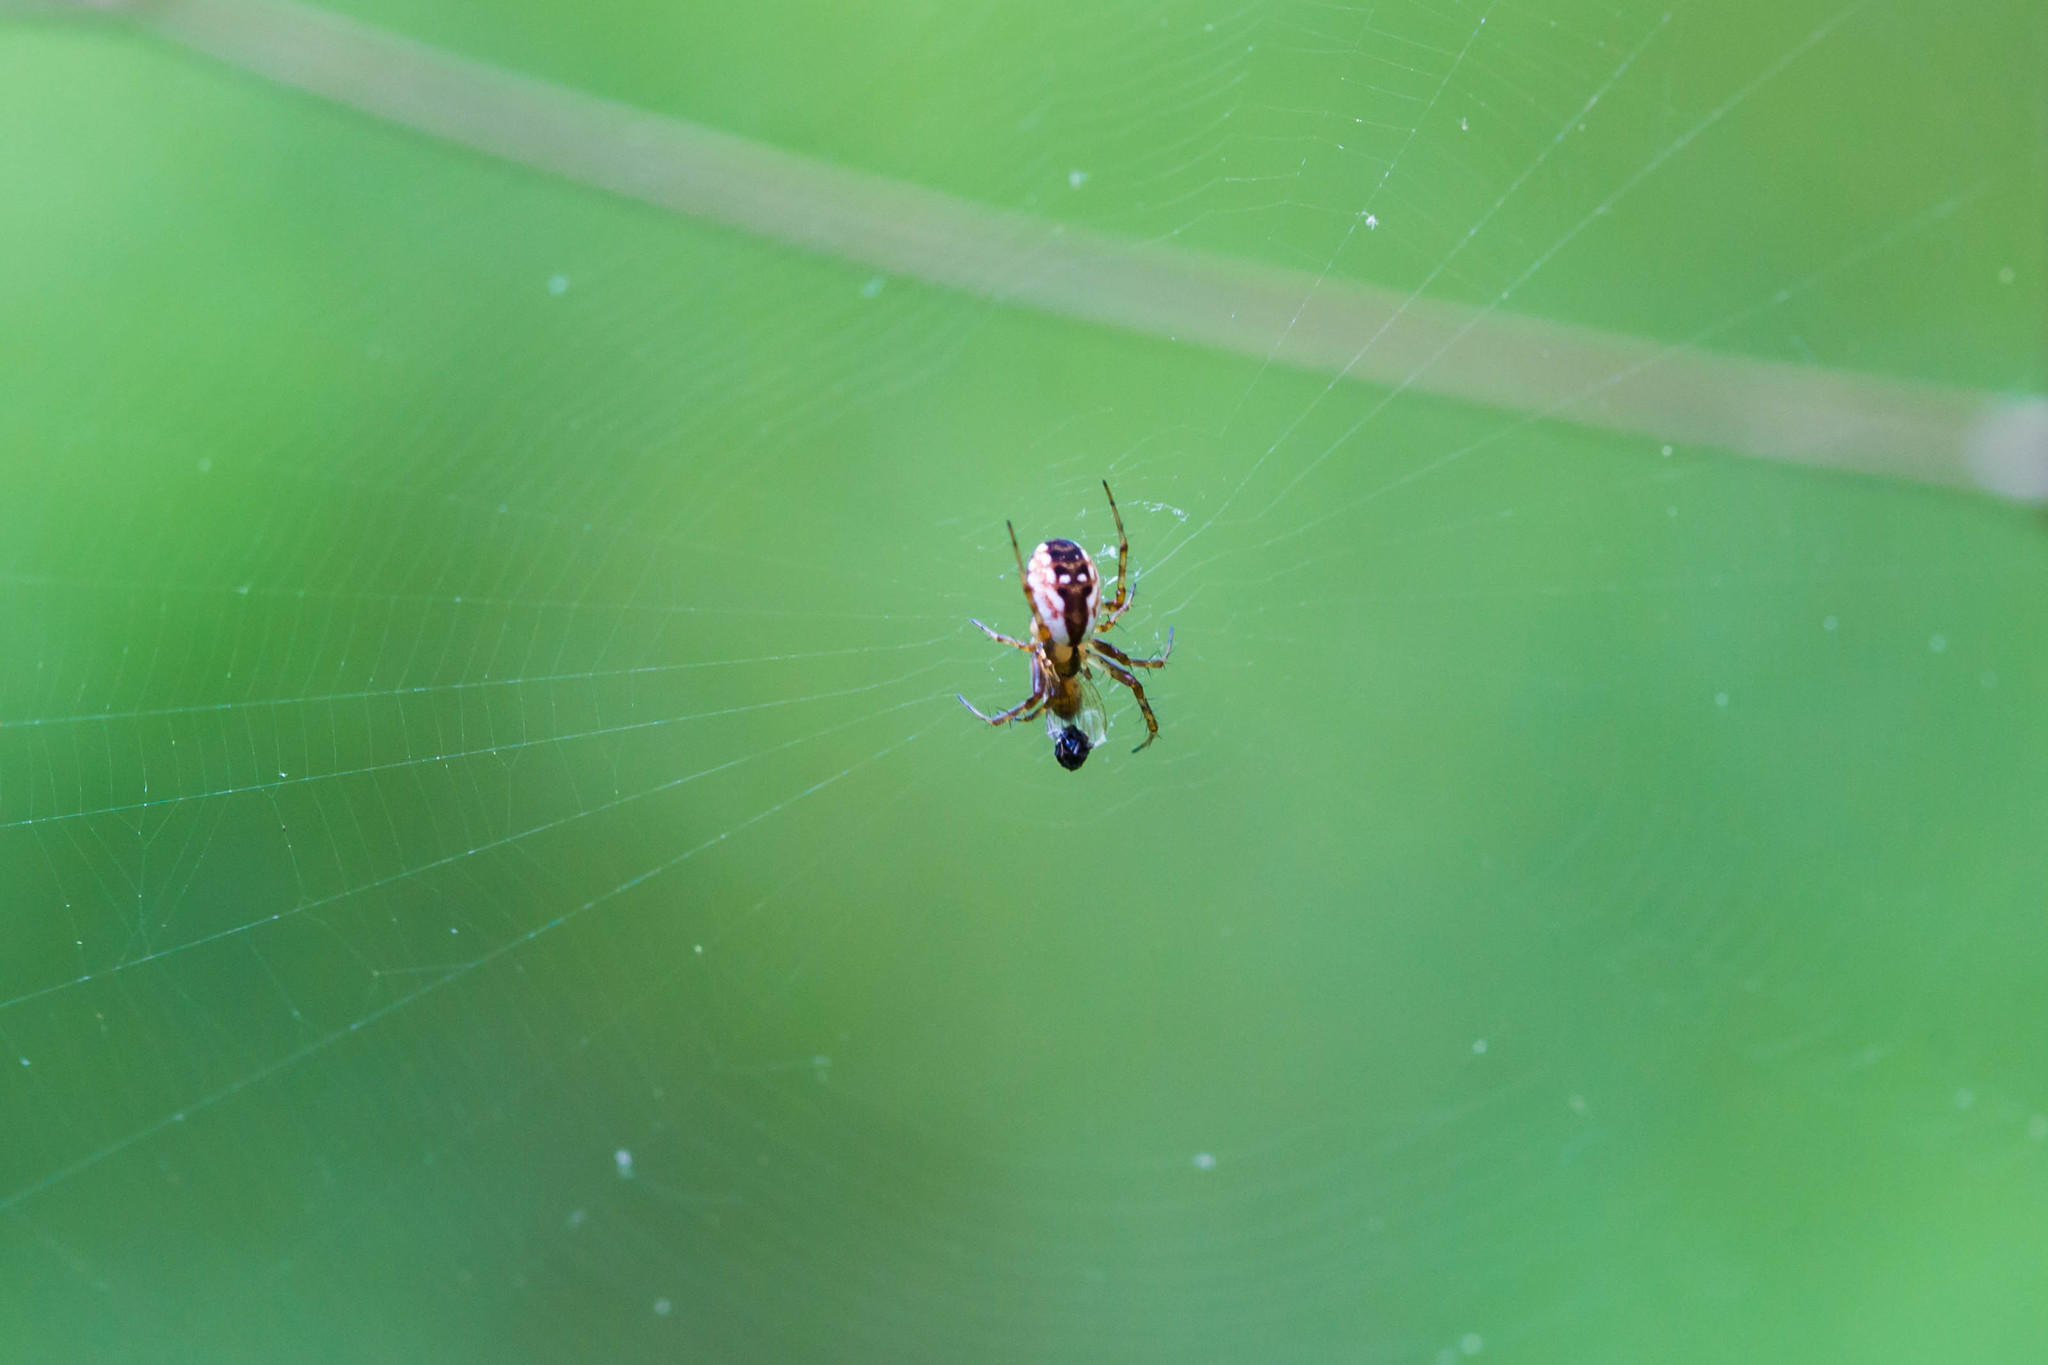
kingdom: Animalia
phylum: Arthropoda
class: Arachnida
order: Araneae
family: Araneidae
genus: Mangora
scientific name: Mangora placida
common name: Tuft-legged orbweaver
